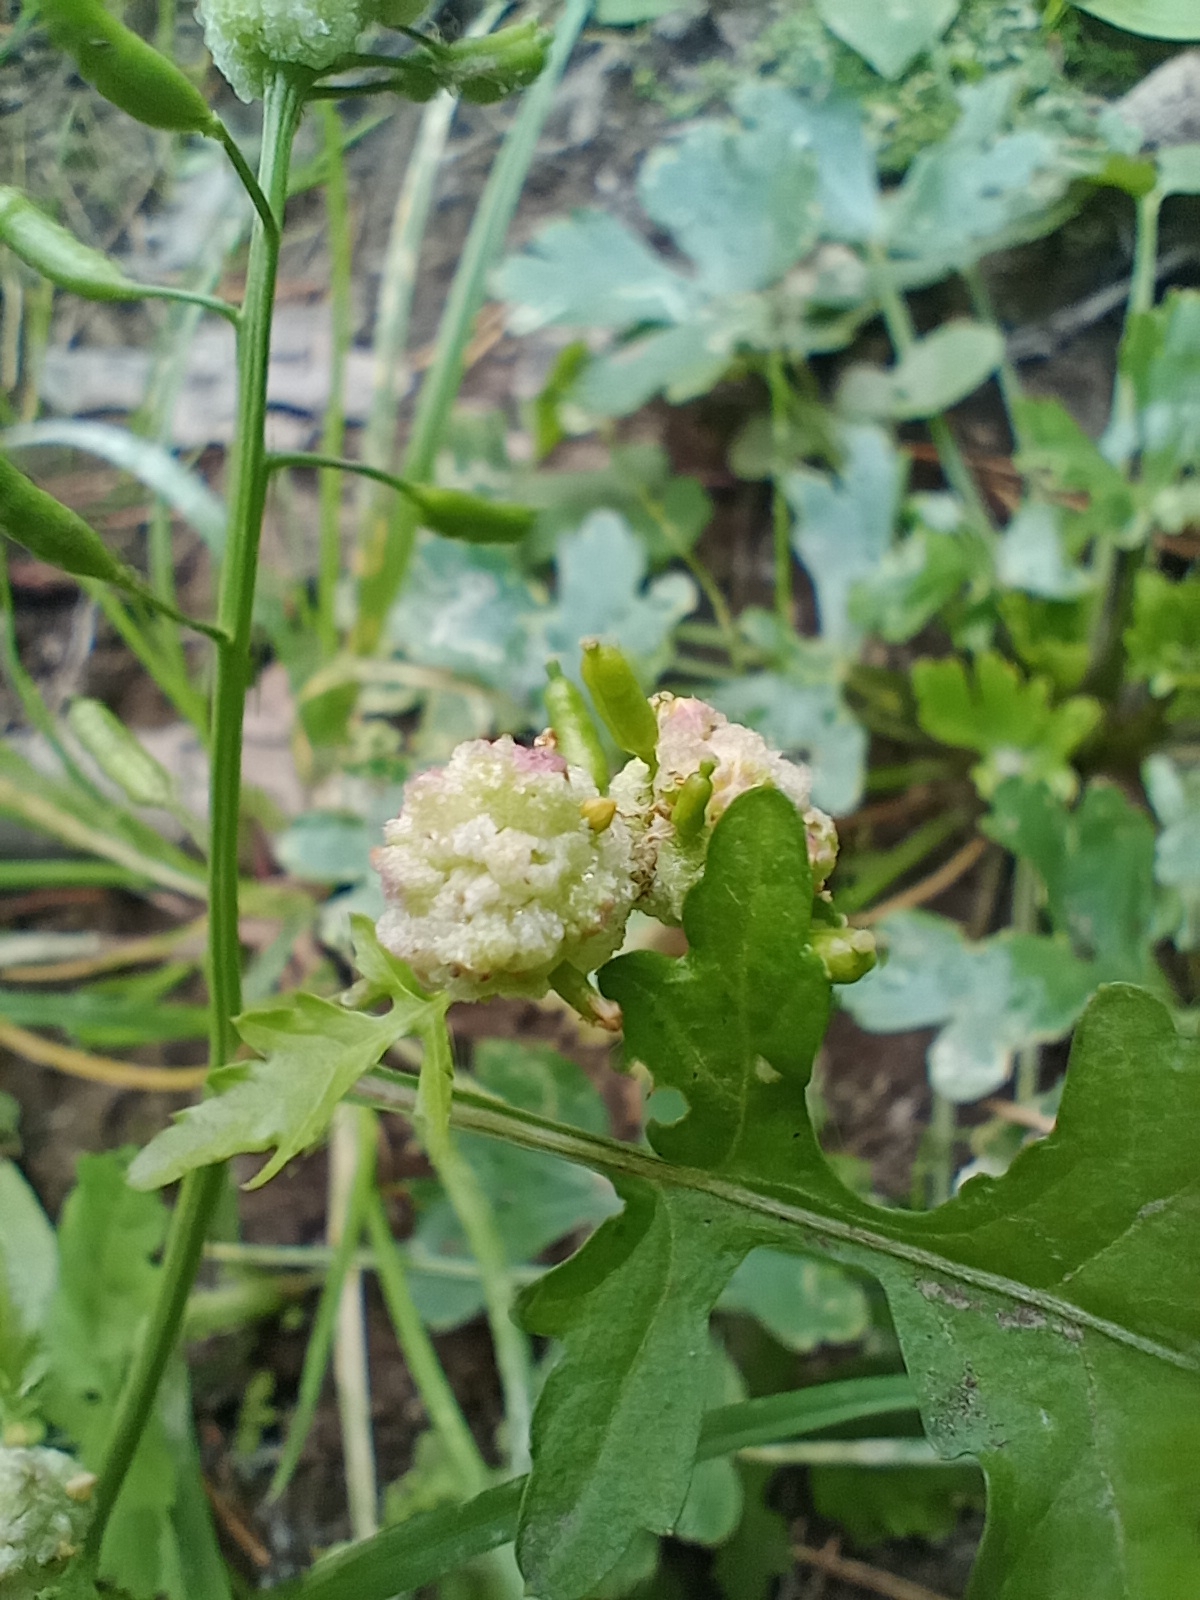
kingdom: Plantae
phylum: Tracheophyta
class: Magnoliopsida
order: Brassicales
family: Brassicaceae
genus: Rorippa
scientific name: Rorippa palustris
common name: Marsh yellow-cress
